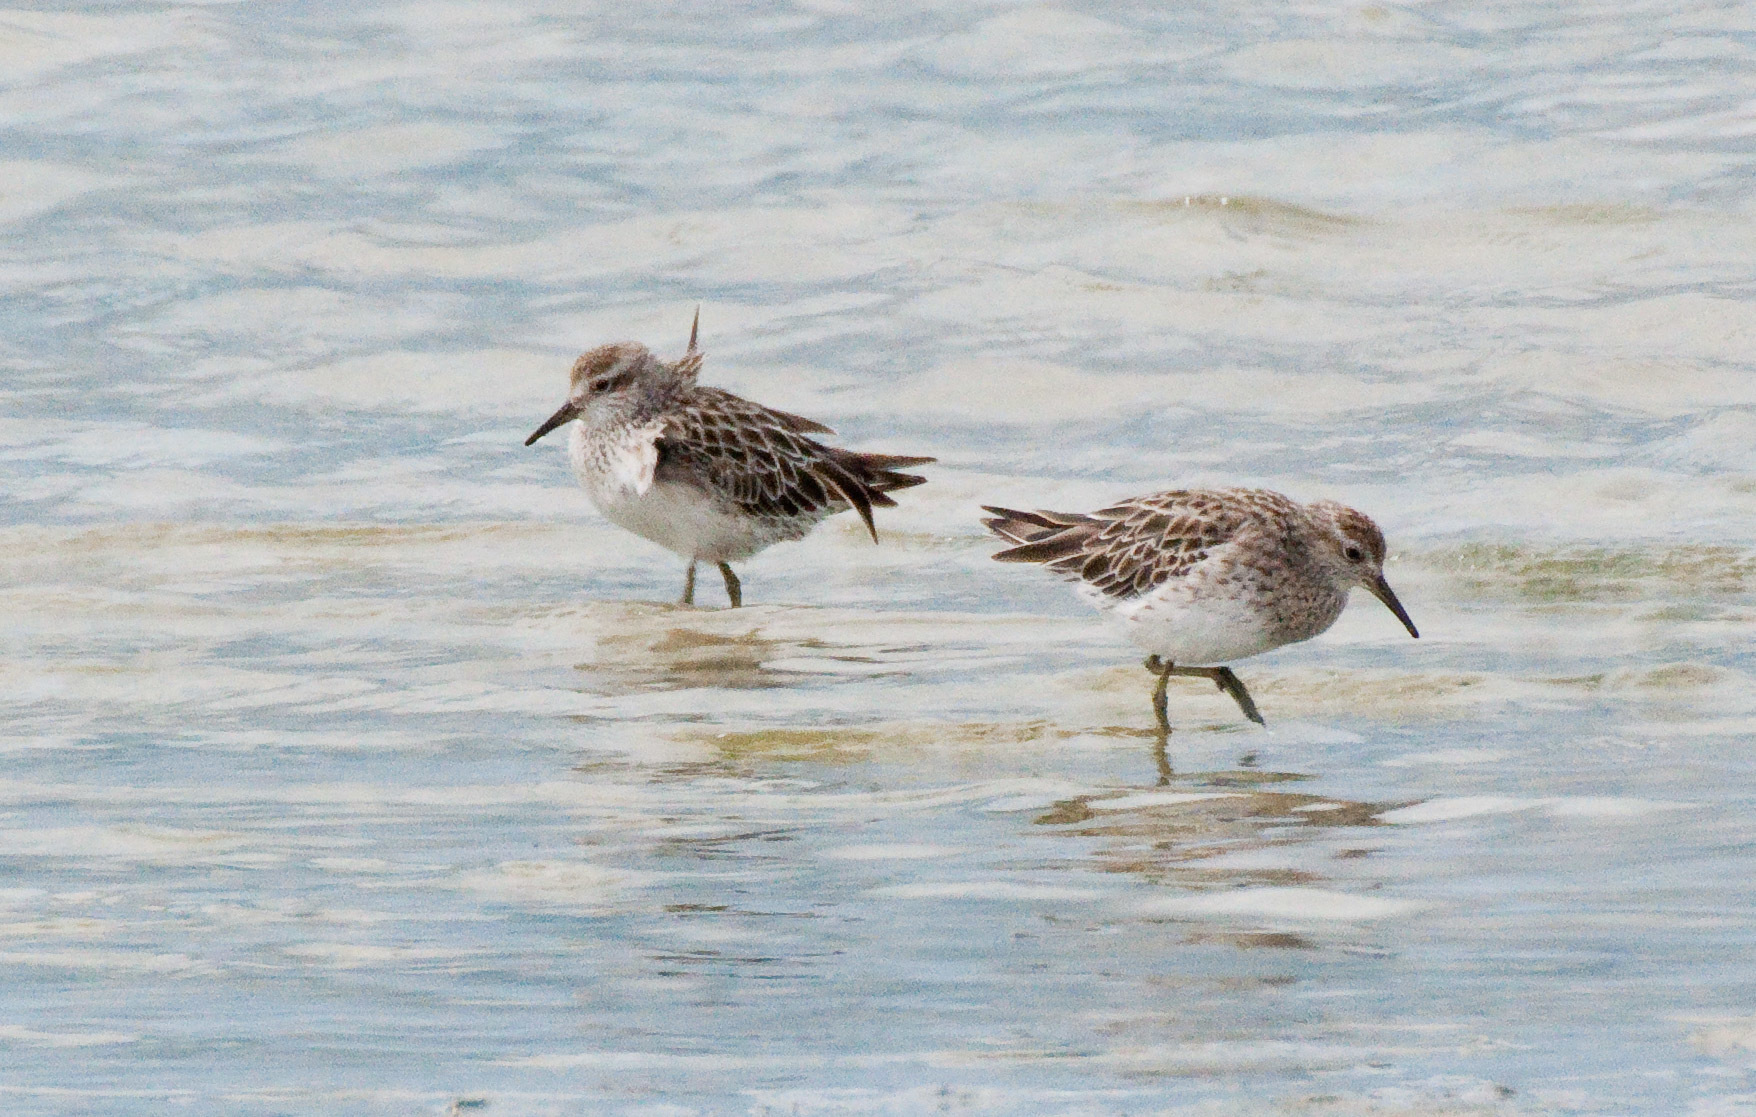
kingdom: Animalia
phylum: Chordata
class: Aves
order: Charadriiformes
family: Scolopacidae
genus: Calidris
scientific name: Calidris acuminata
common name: Sharp-tailed sandpiper
